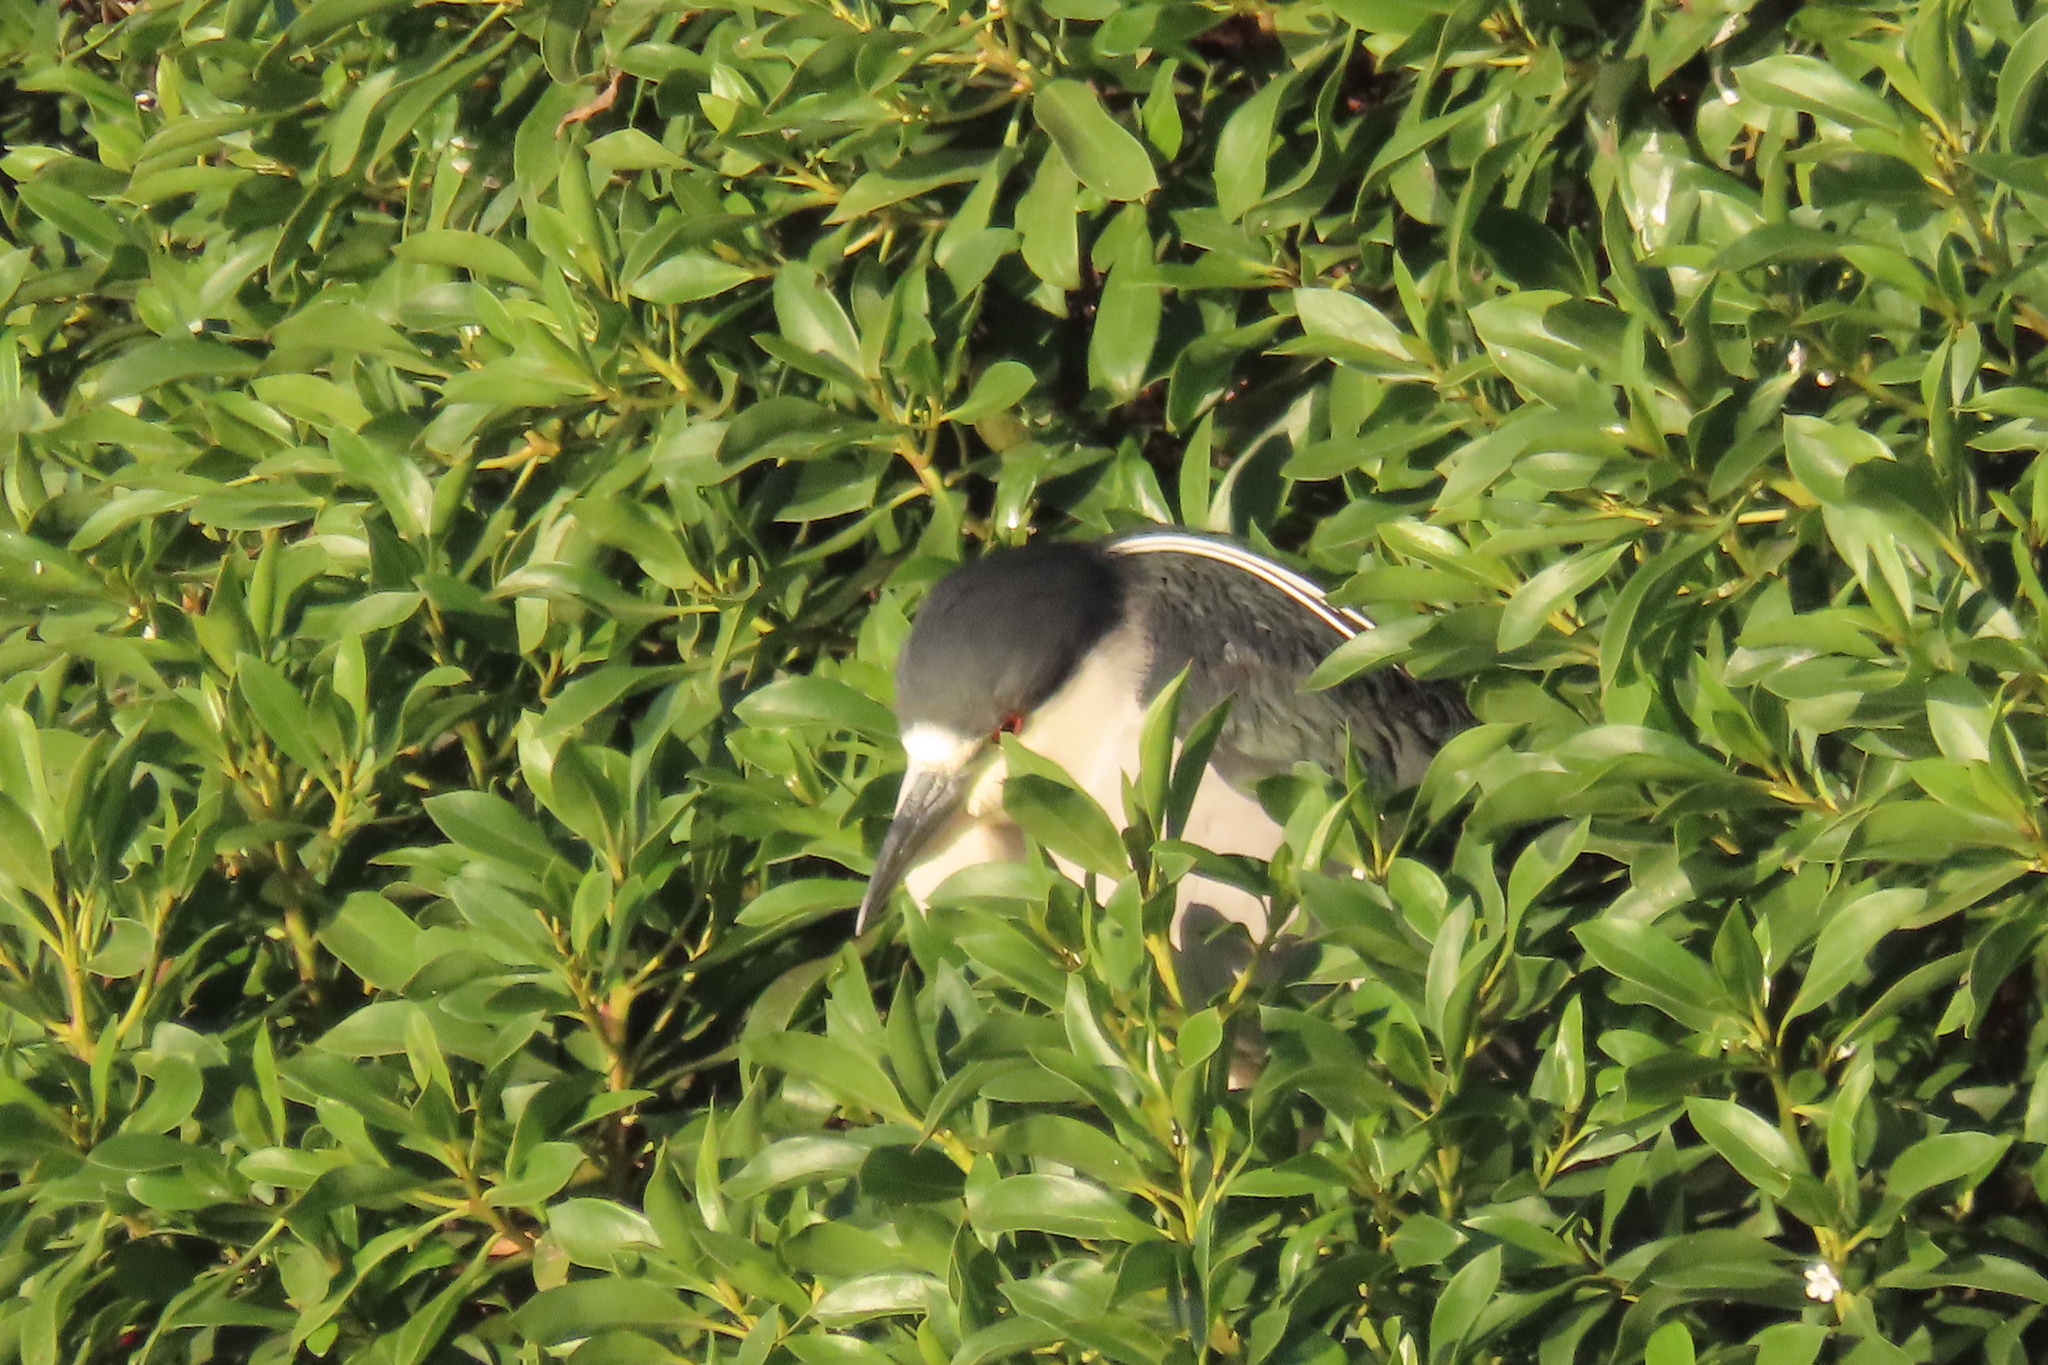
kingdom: Animalia
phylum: Chordata
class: Aves
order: Pelecaniformes
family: Ardeidae
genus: Nycticorax
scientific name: Nycticorax nycticorax
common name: Black-crowned night heron
